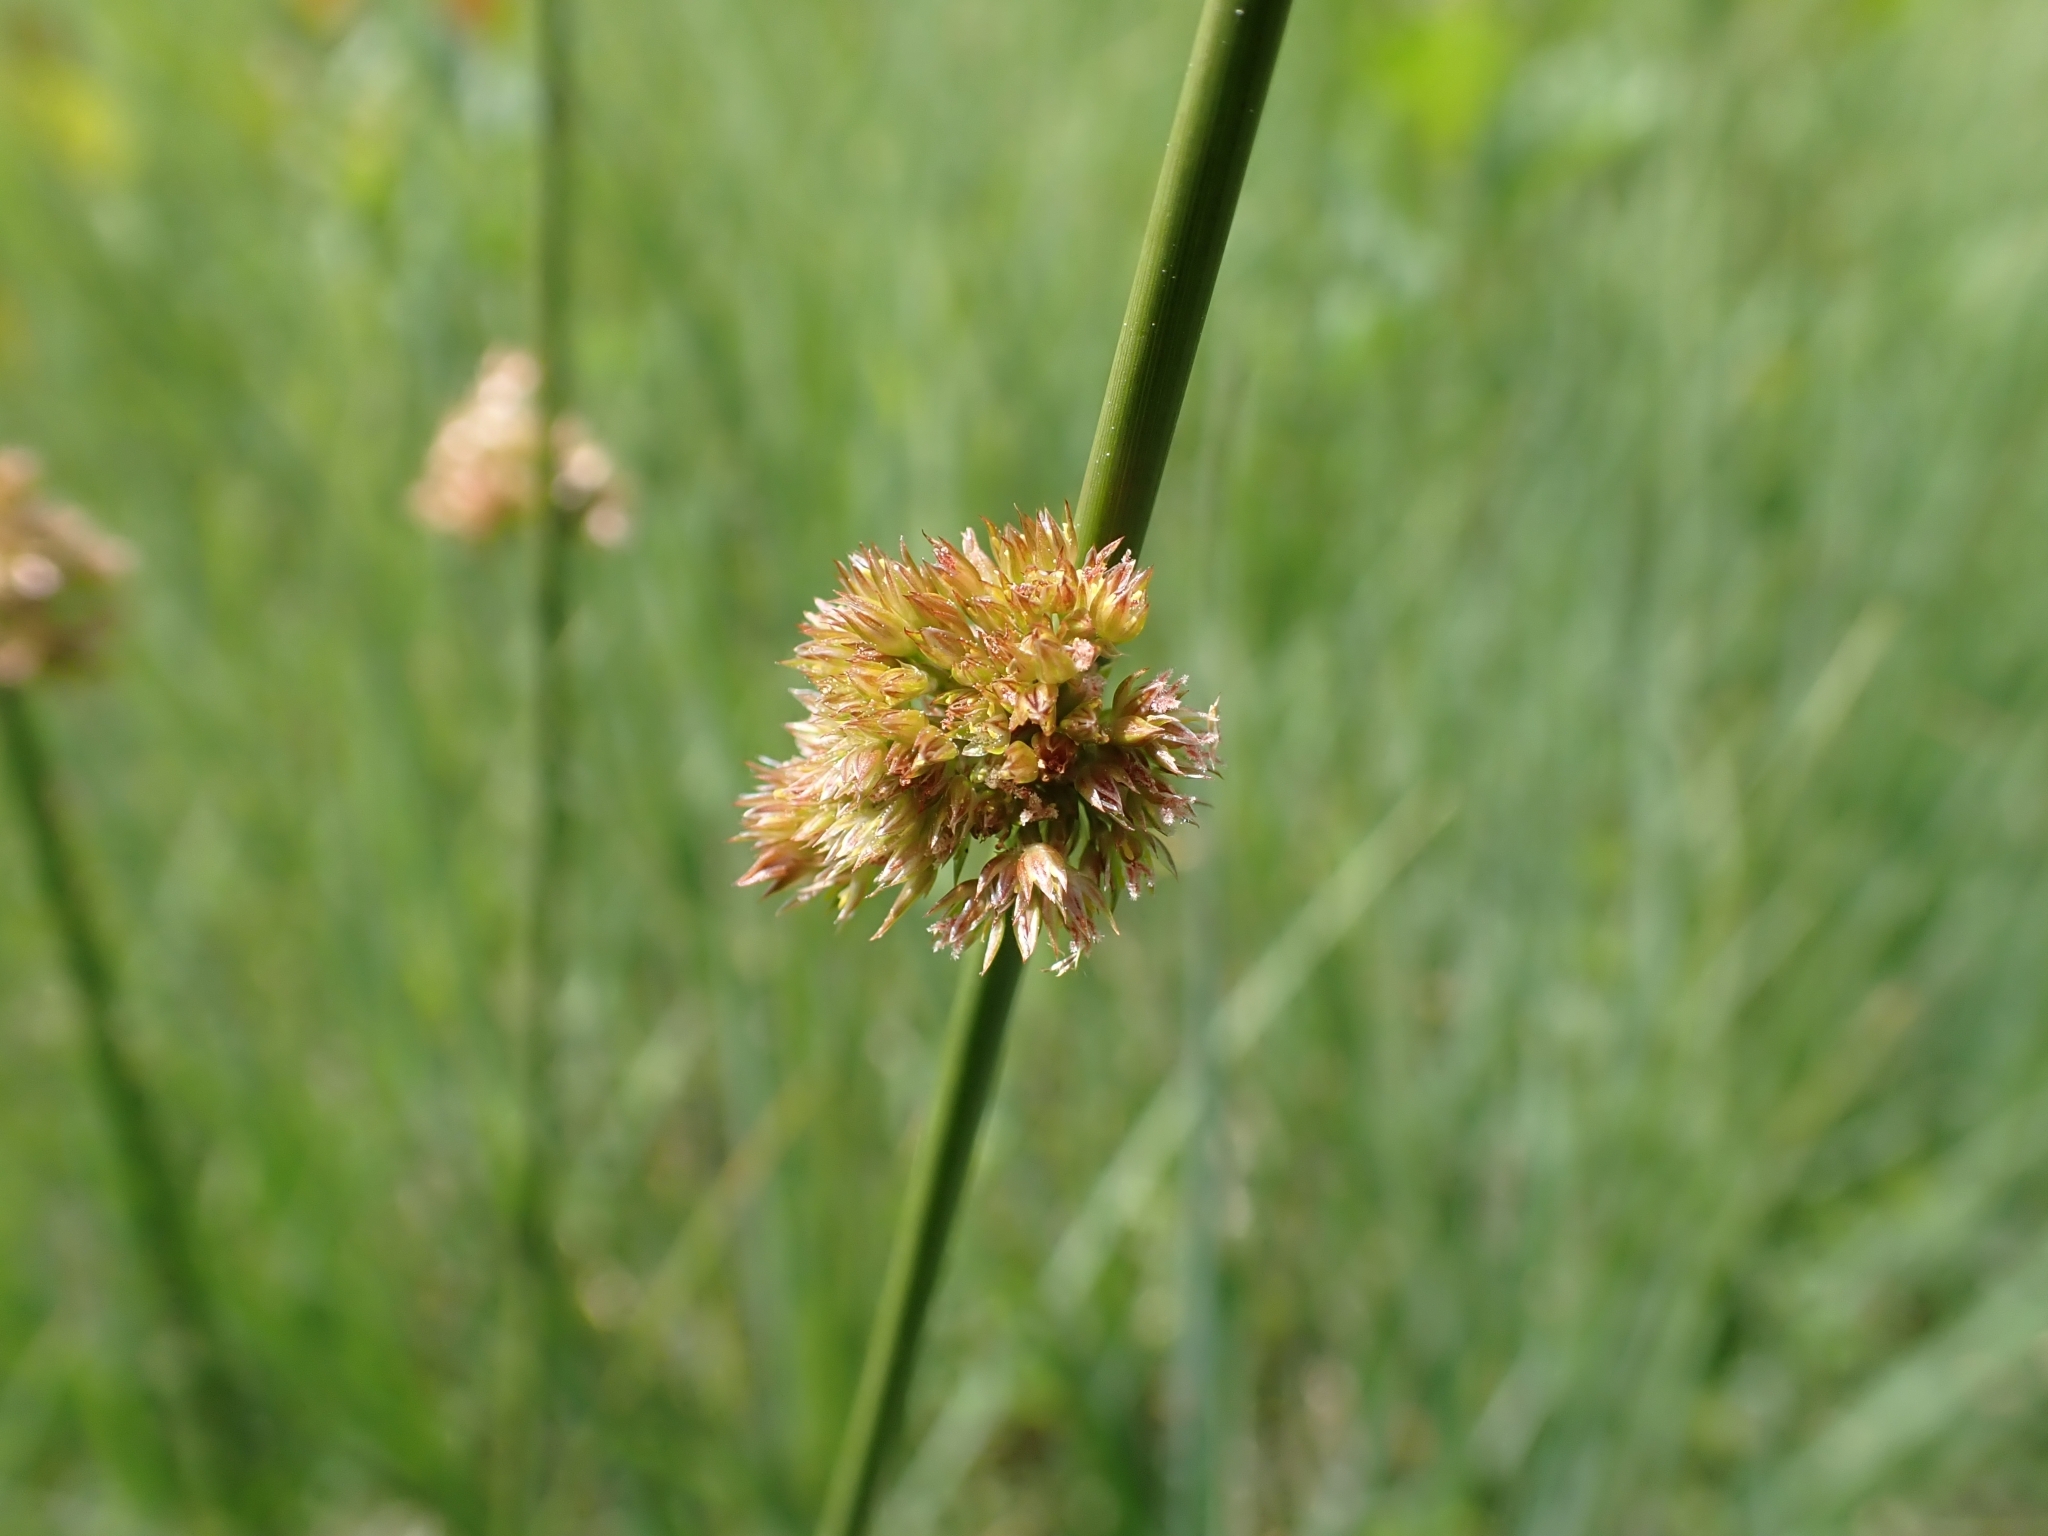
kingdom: Plantae
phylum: Tracheophyta
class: Liliopsida
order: Poales
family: Juncaceae
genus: Juncus
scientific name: Juncus conglomeratus
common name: Compact rush
